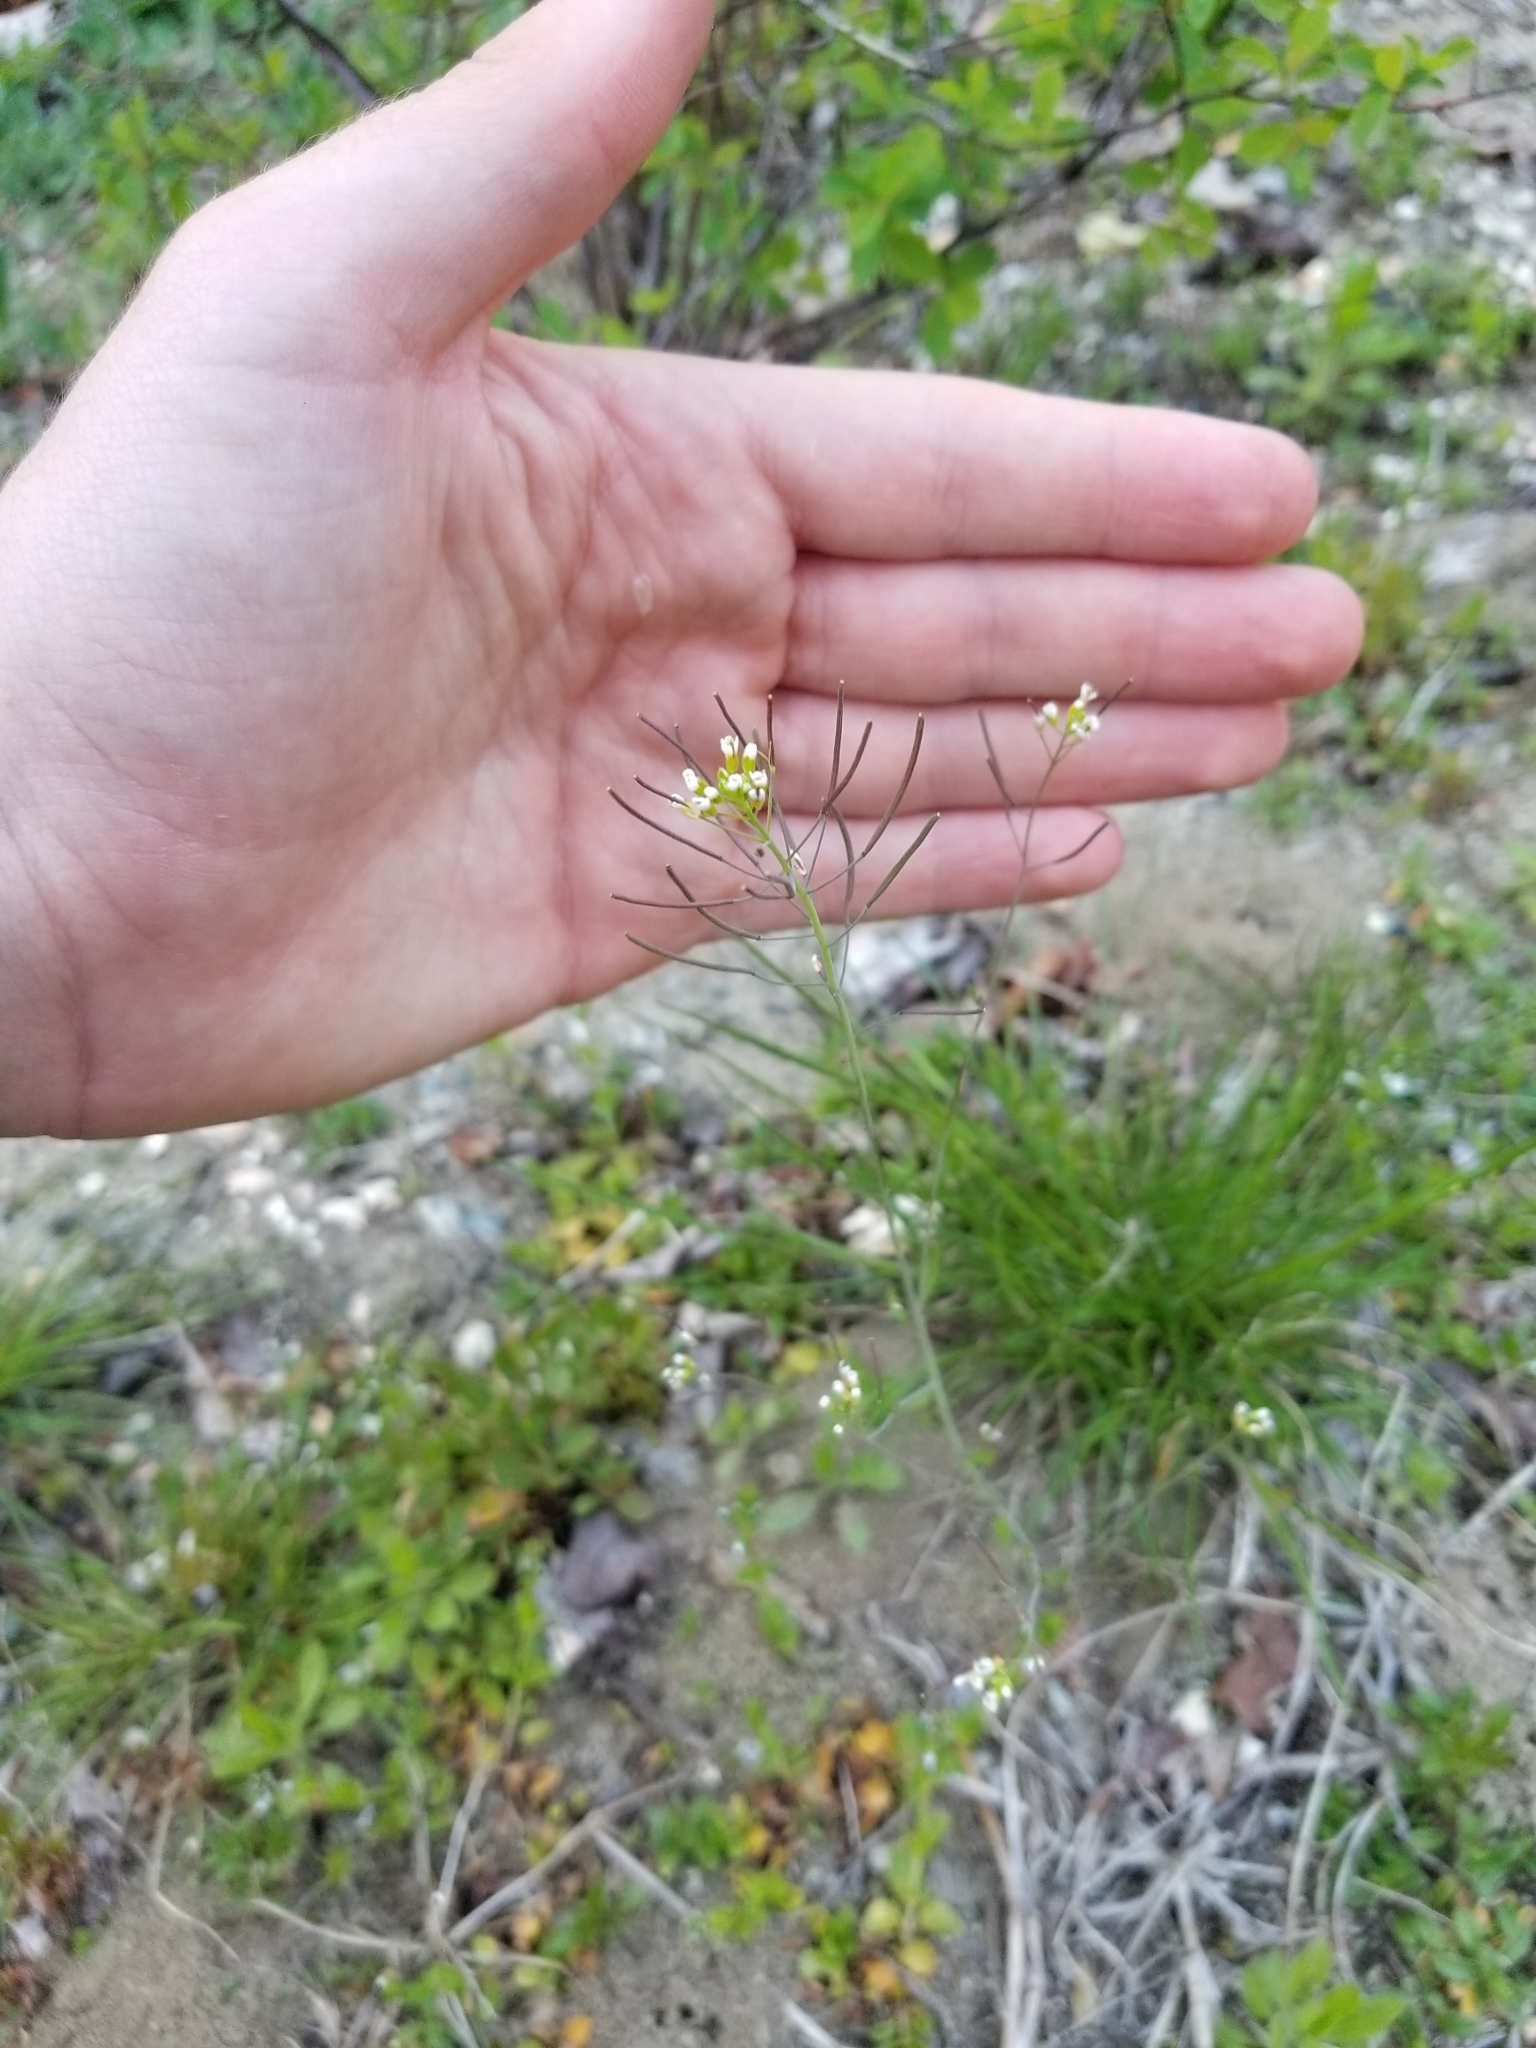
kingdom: Plantae
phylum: Tracheophyta
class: Magnoliopsida
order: Brassicales
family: Brassicaceae
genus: Arabidopsis
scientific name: Arabidopsis thaliana
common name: Thale cress
